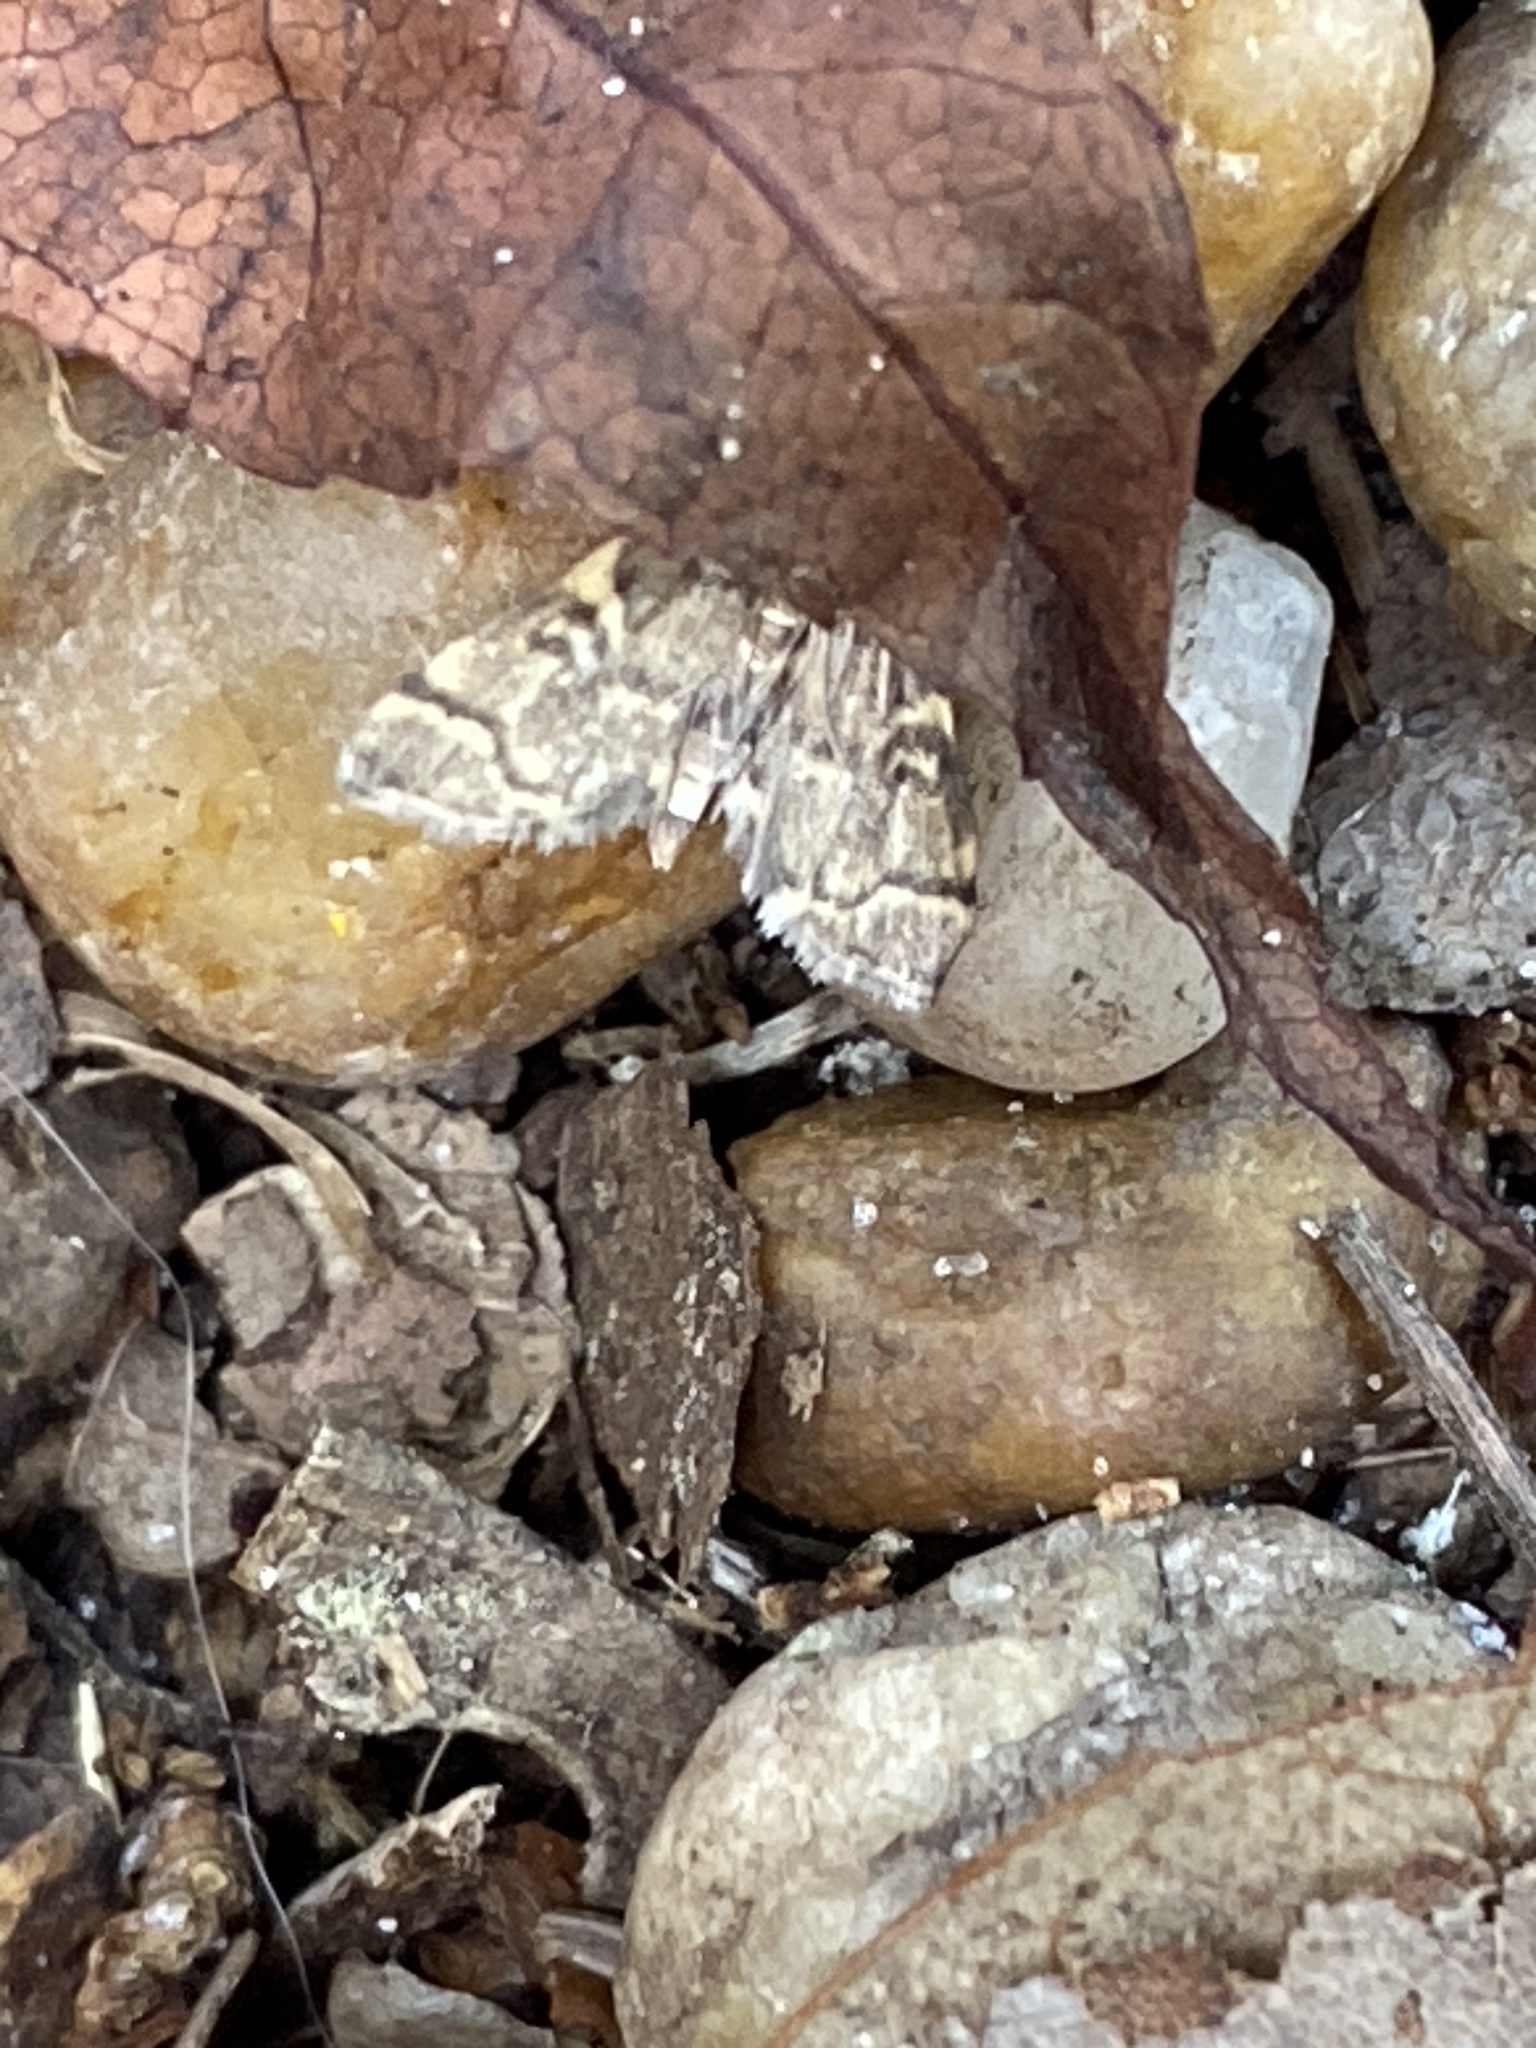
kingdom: Animalia
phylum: Arthropoda
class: Insecta
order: Lepidoptera
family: Crambidae
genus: Anageshna
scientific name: Anageshna primordialis
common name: Yellow-spotted webworm moth
